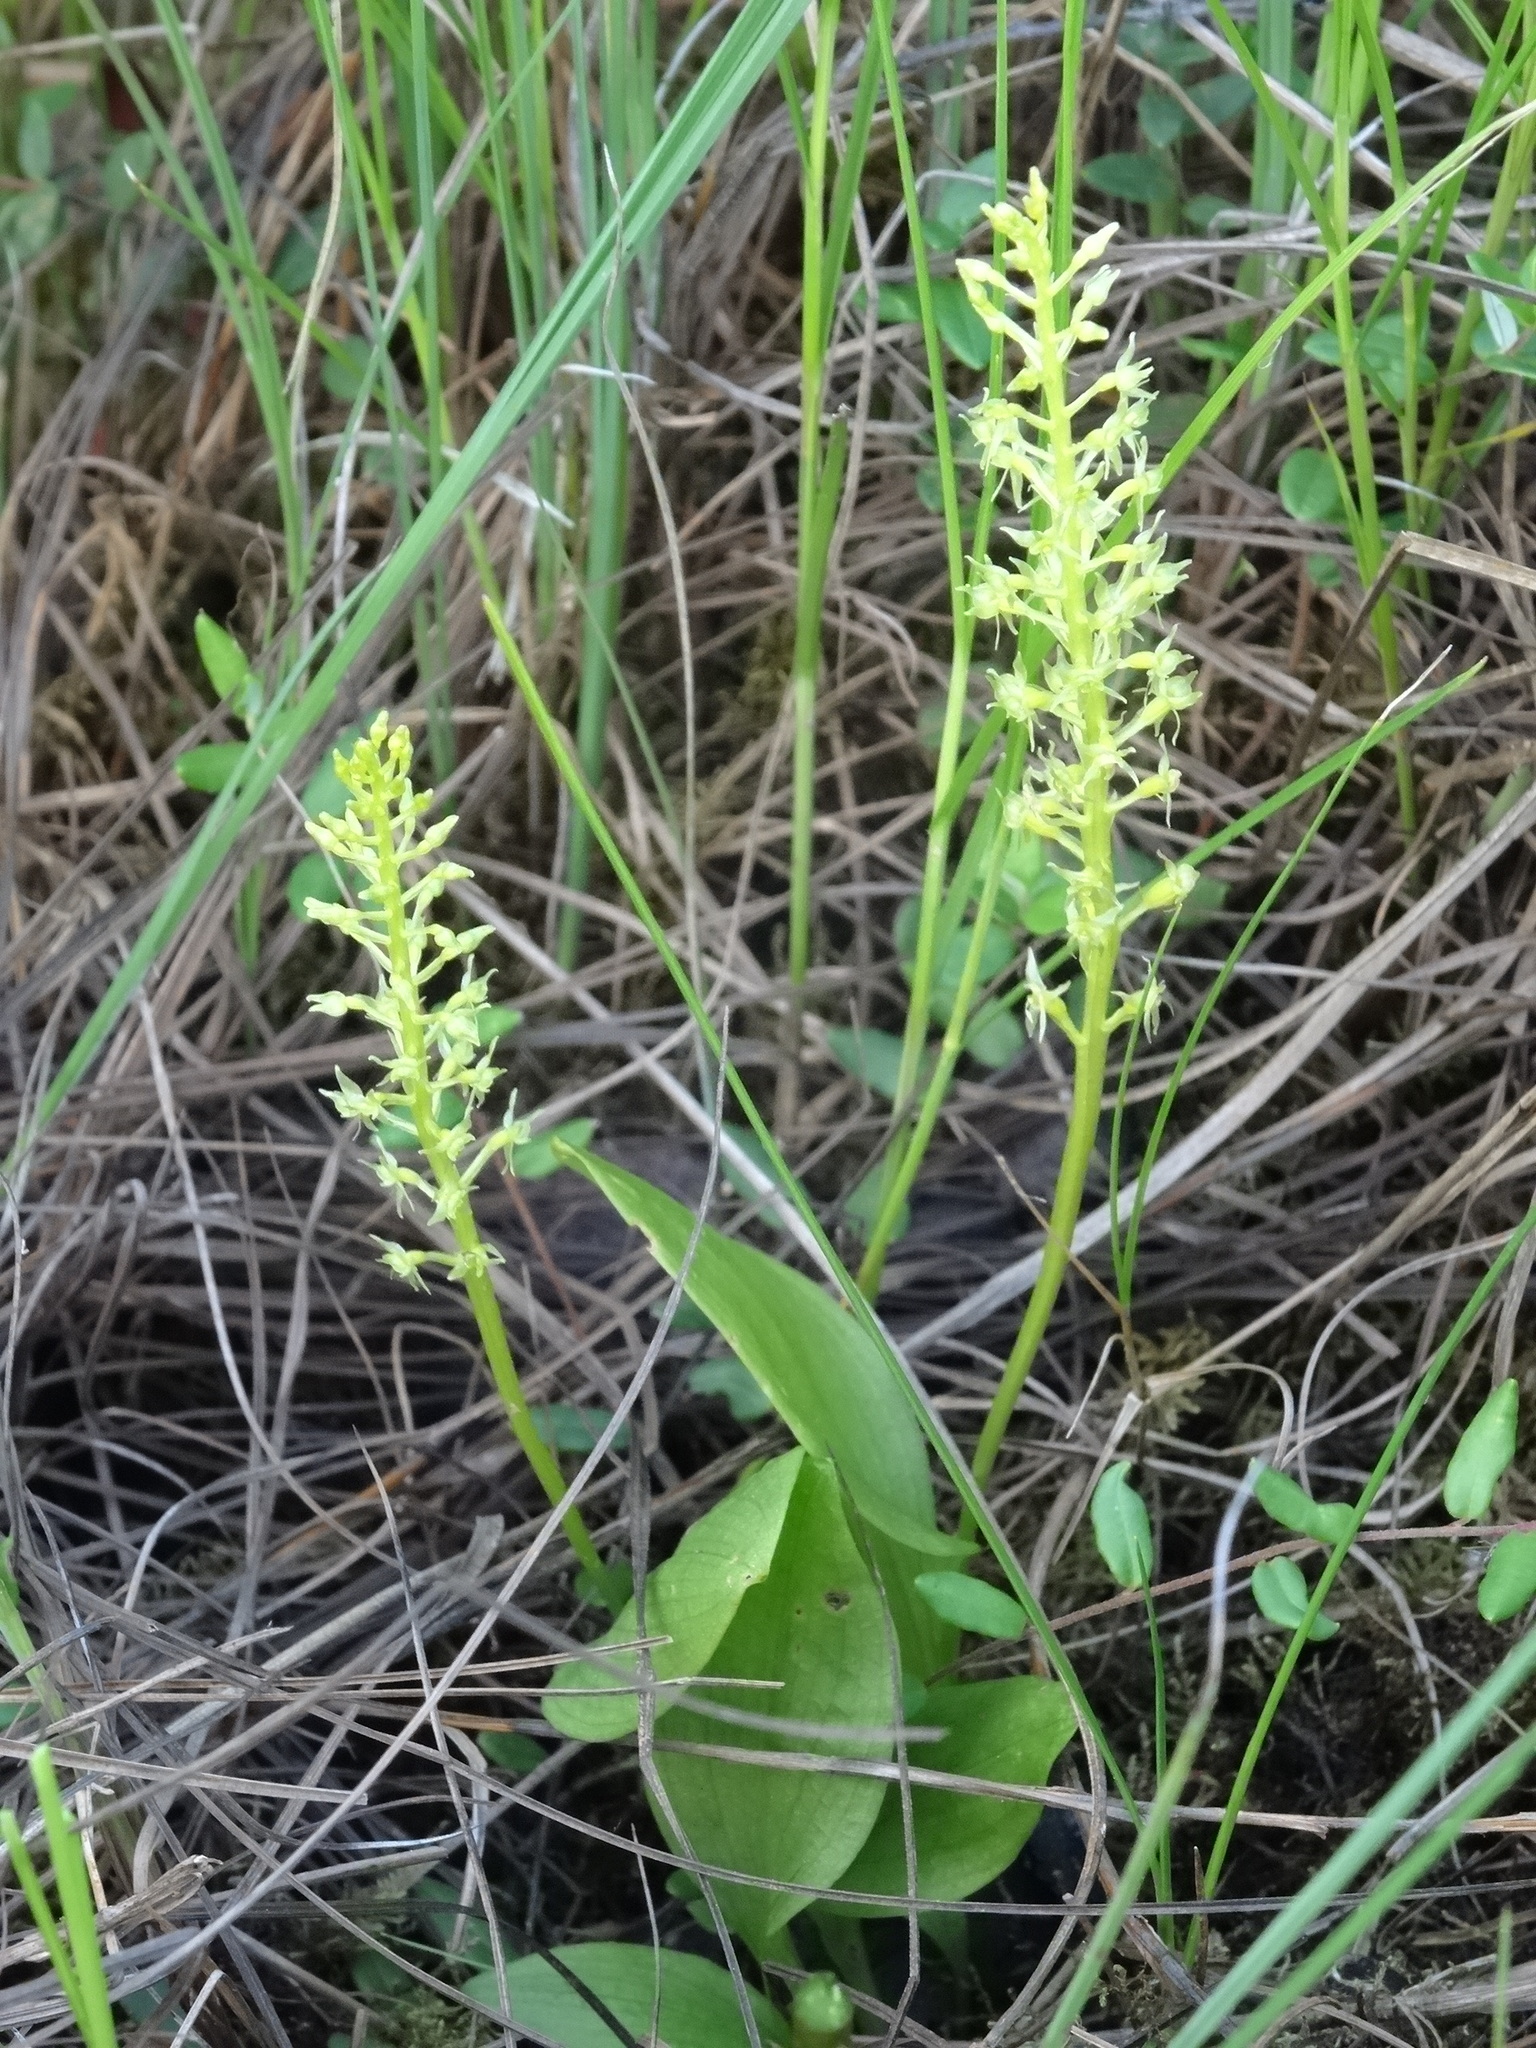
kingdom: Plantae
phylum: Tracheophyta
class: Liliopsida
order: Asparagales
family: Orchidaceae
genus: Malaxis
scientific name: Malaxis monophyllos
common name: White adder's-mouth
